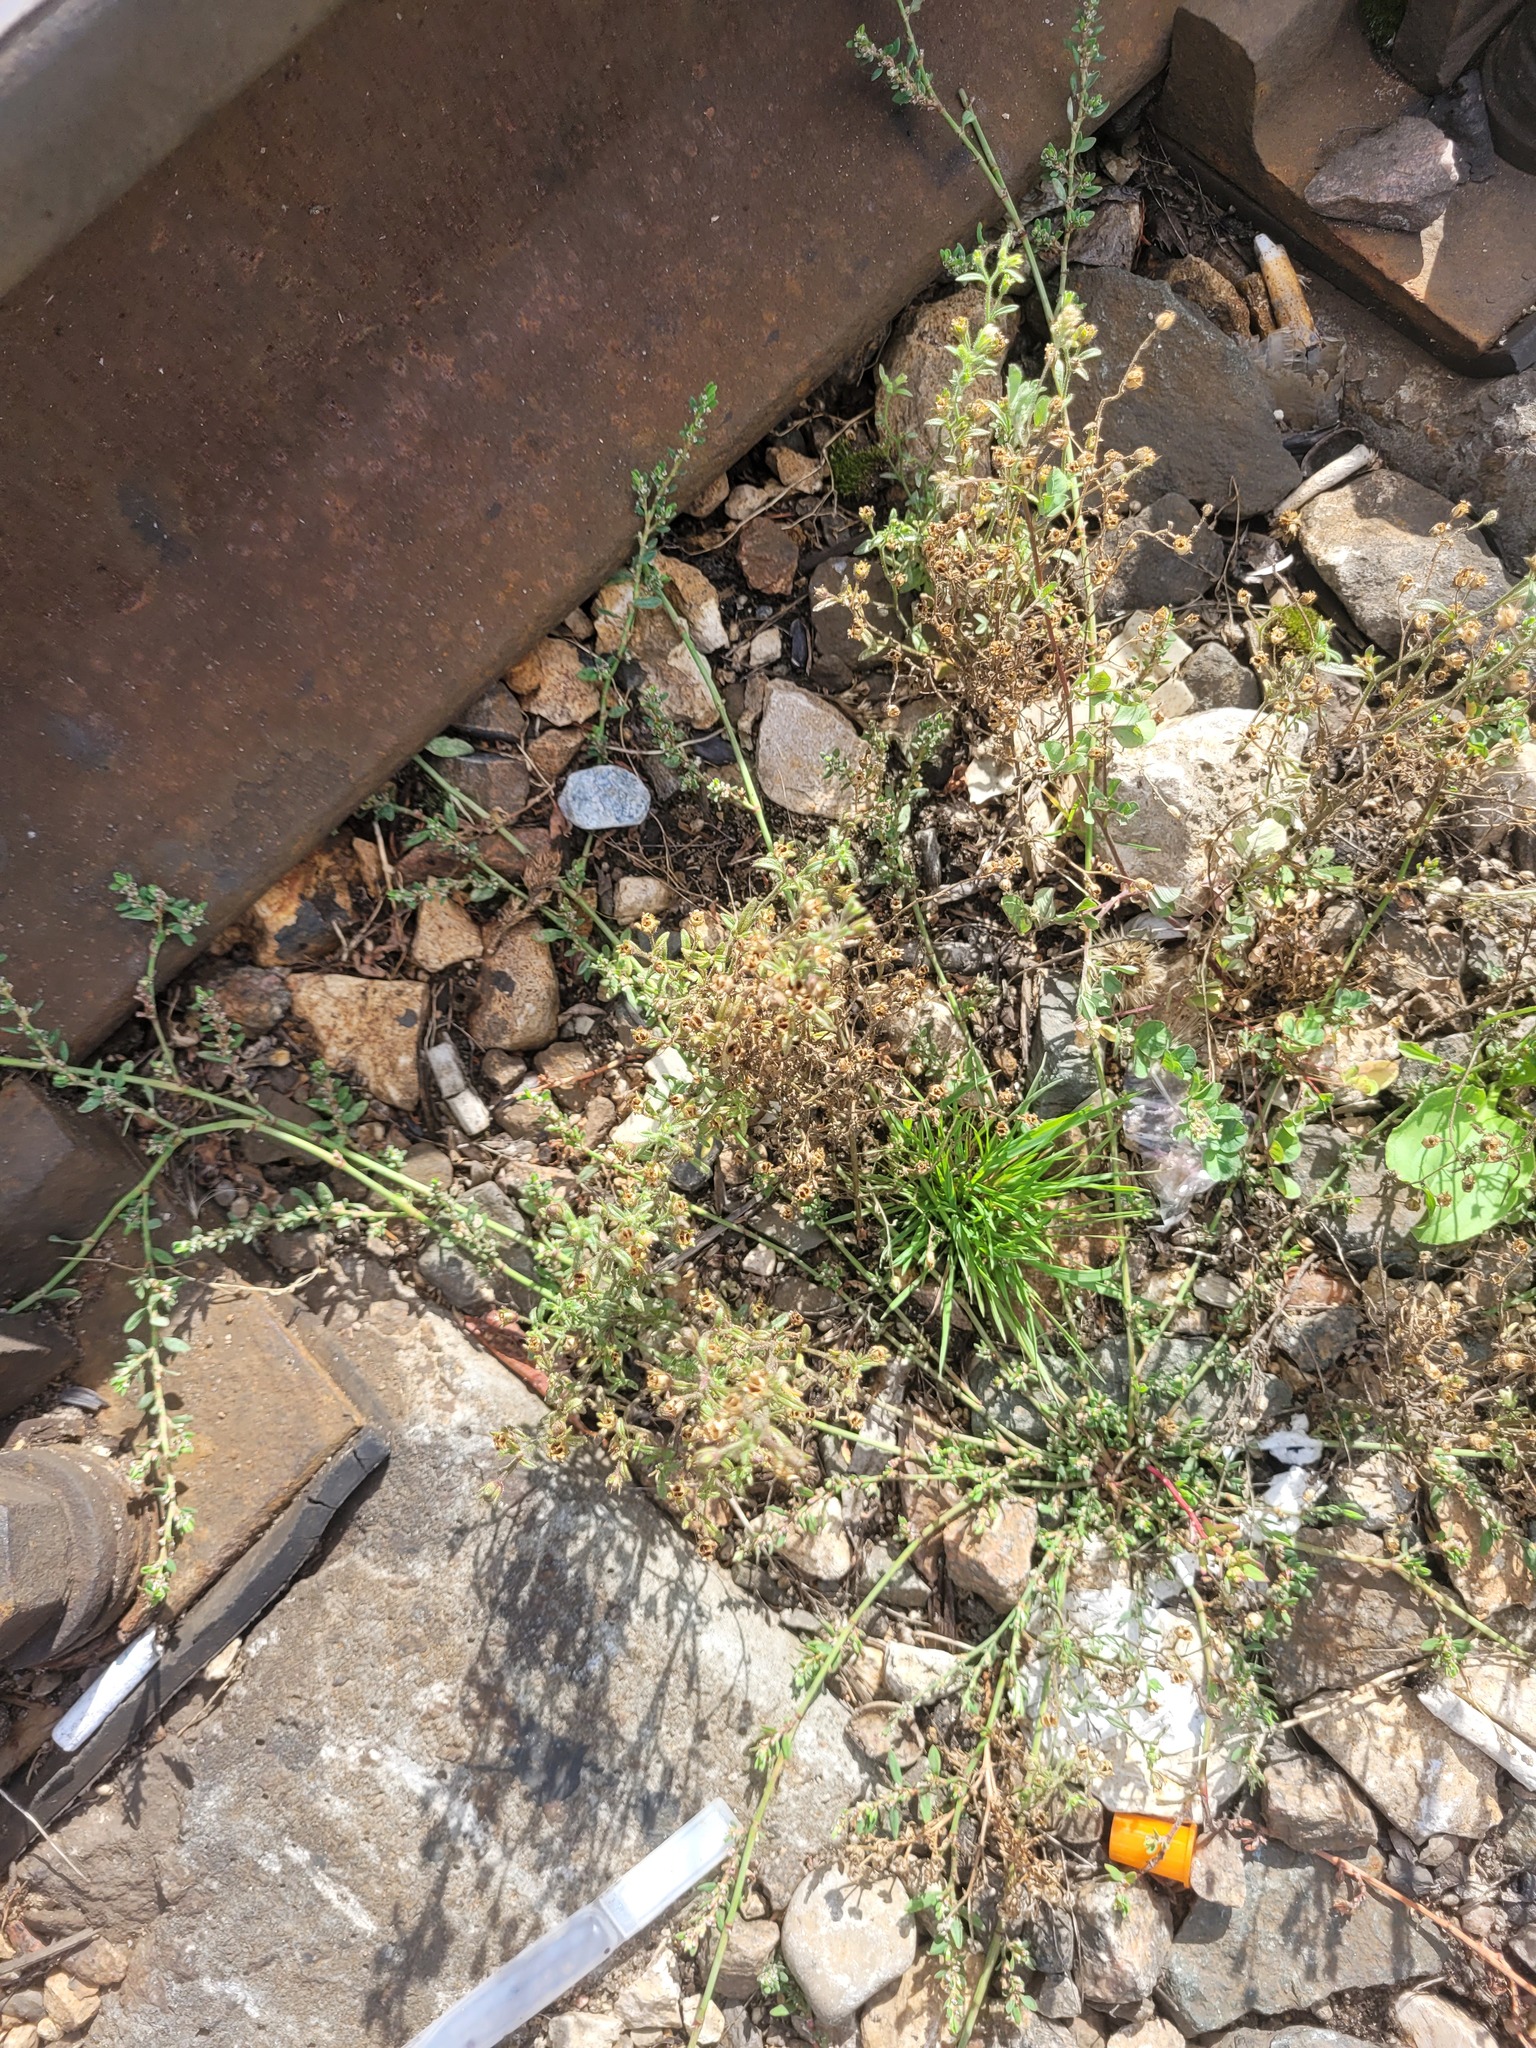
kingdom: Plantae
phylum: Tracheophyta
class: Magnoliopsida
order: Lamiales
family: Plantaginaceae
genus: Chaenorhinum
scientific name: Chaenorhinum minus
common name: Dwarf snapdragon
